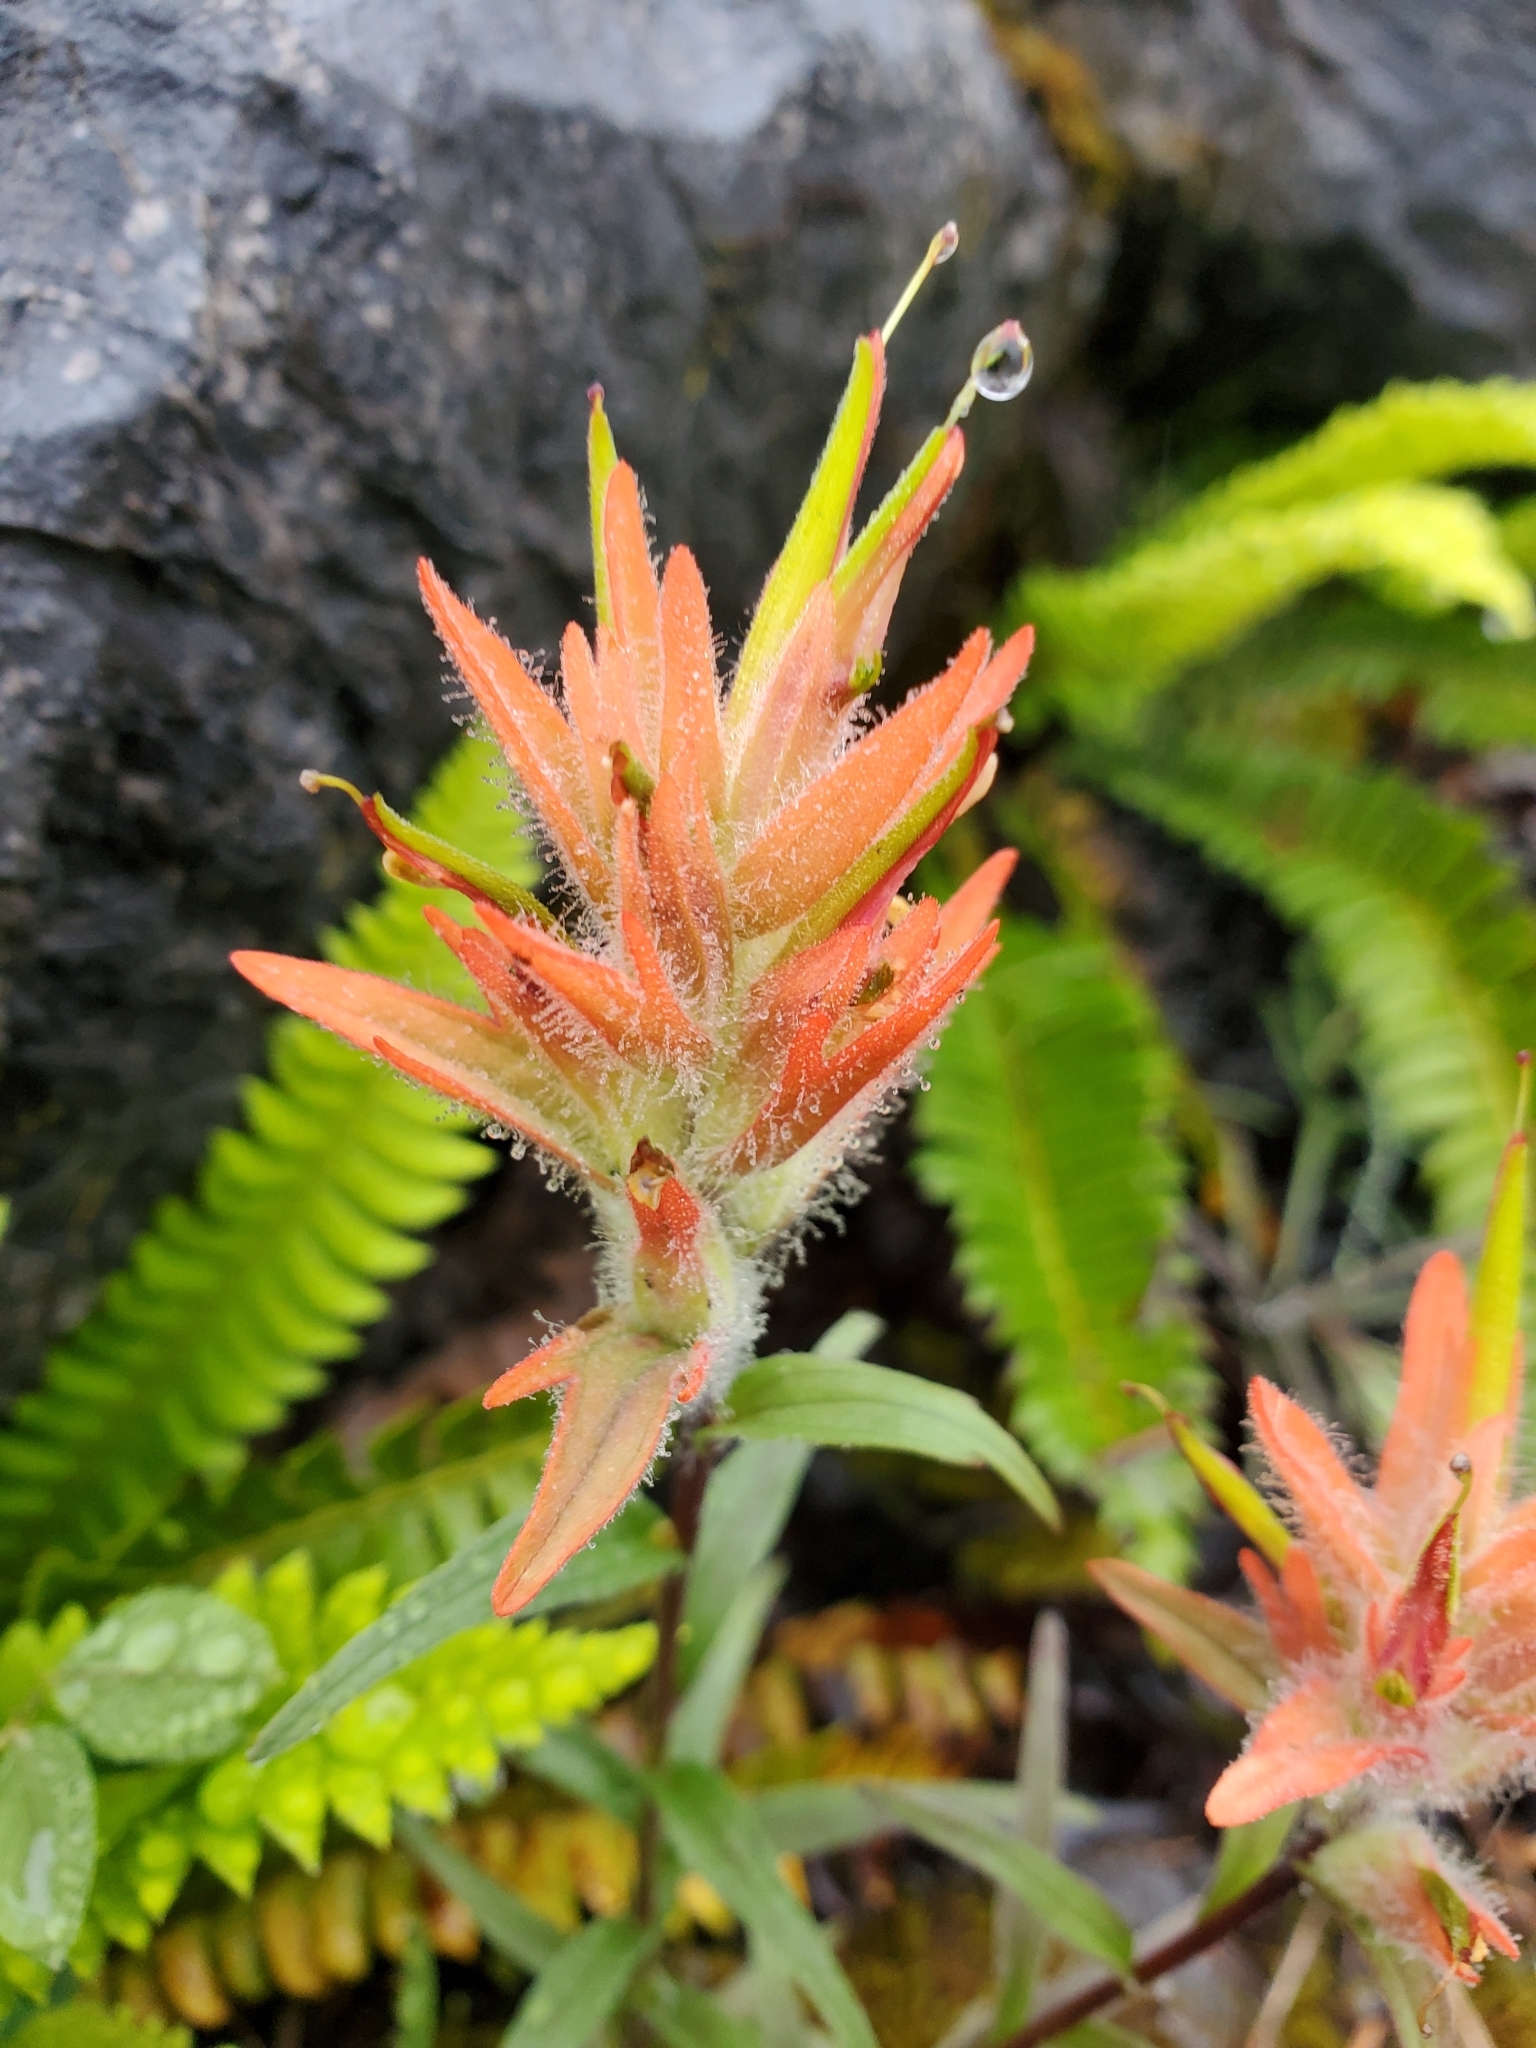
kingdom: Plantae
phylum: Tracheophyta
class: Magnoliopsida
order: Lamiales
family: Orobanchaceae
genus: Castilleja
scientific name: Castilleja miniata
